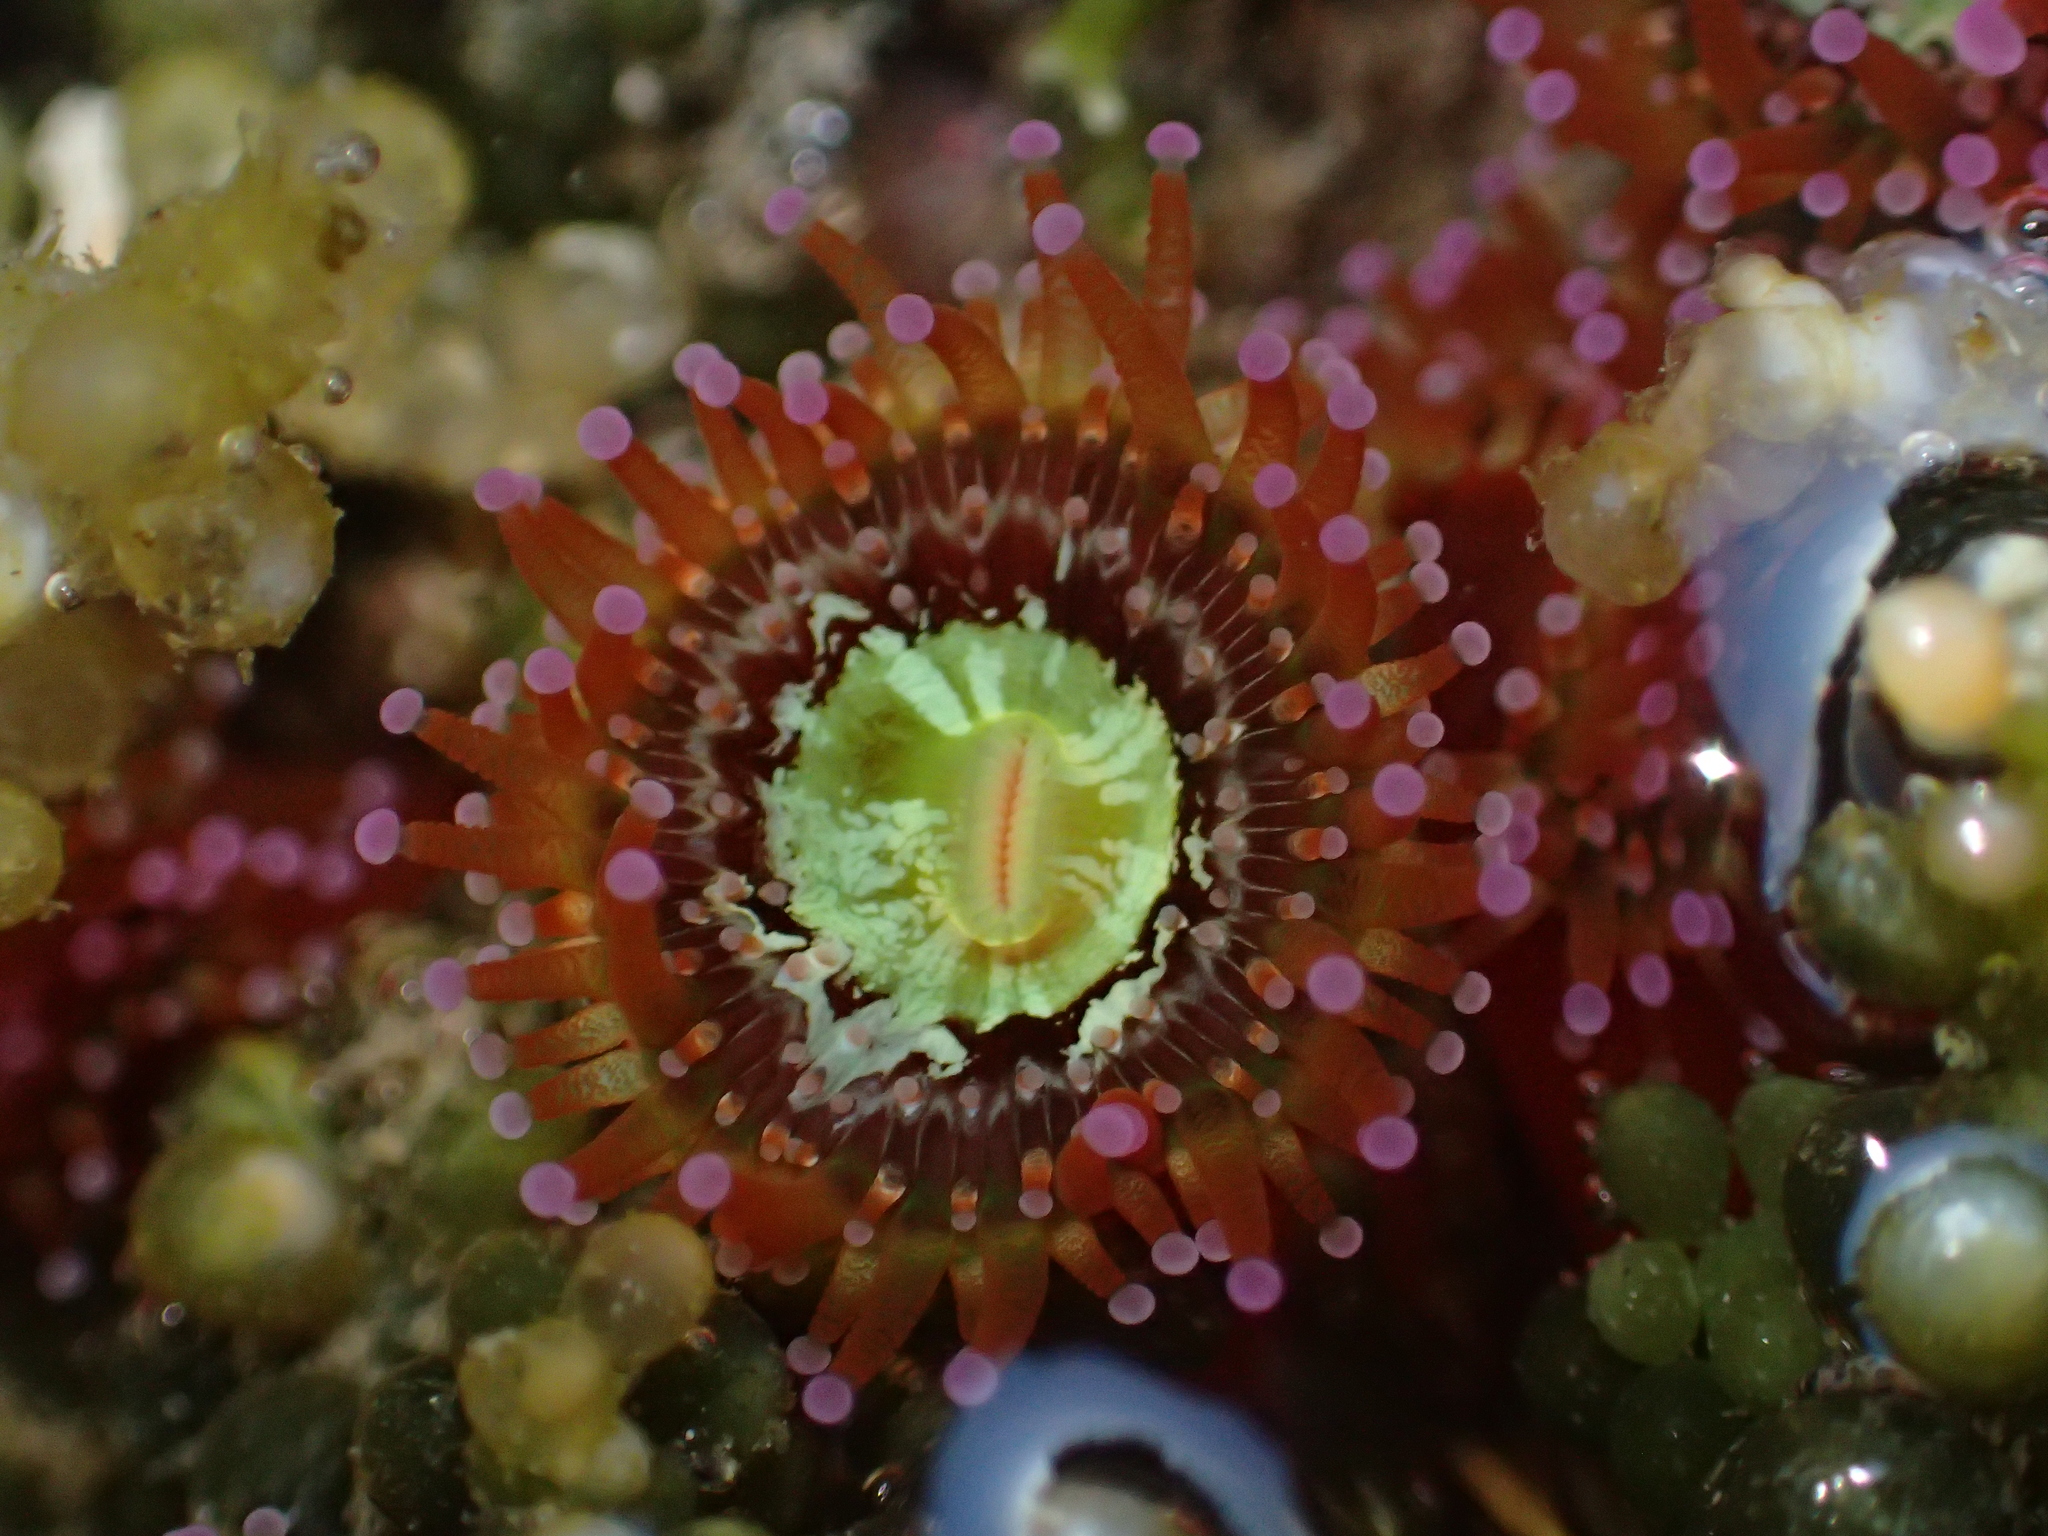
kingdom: Animalia
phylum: Cnidaria
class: Anthozoa
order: Corallimorpharia
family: Corallimorphidae
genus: Corynactis
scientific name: Corynactis australis
